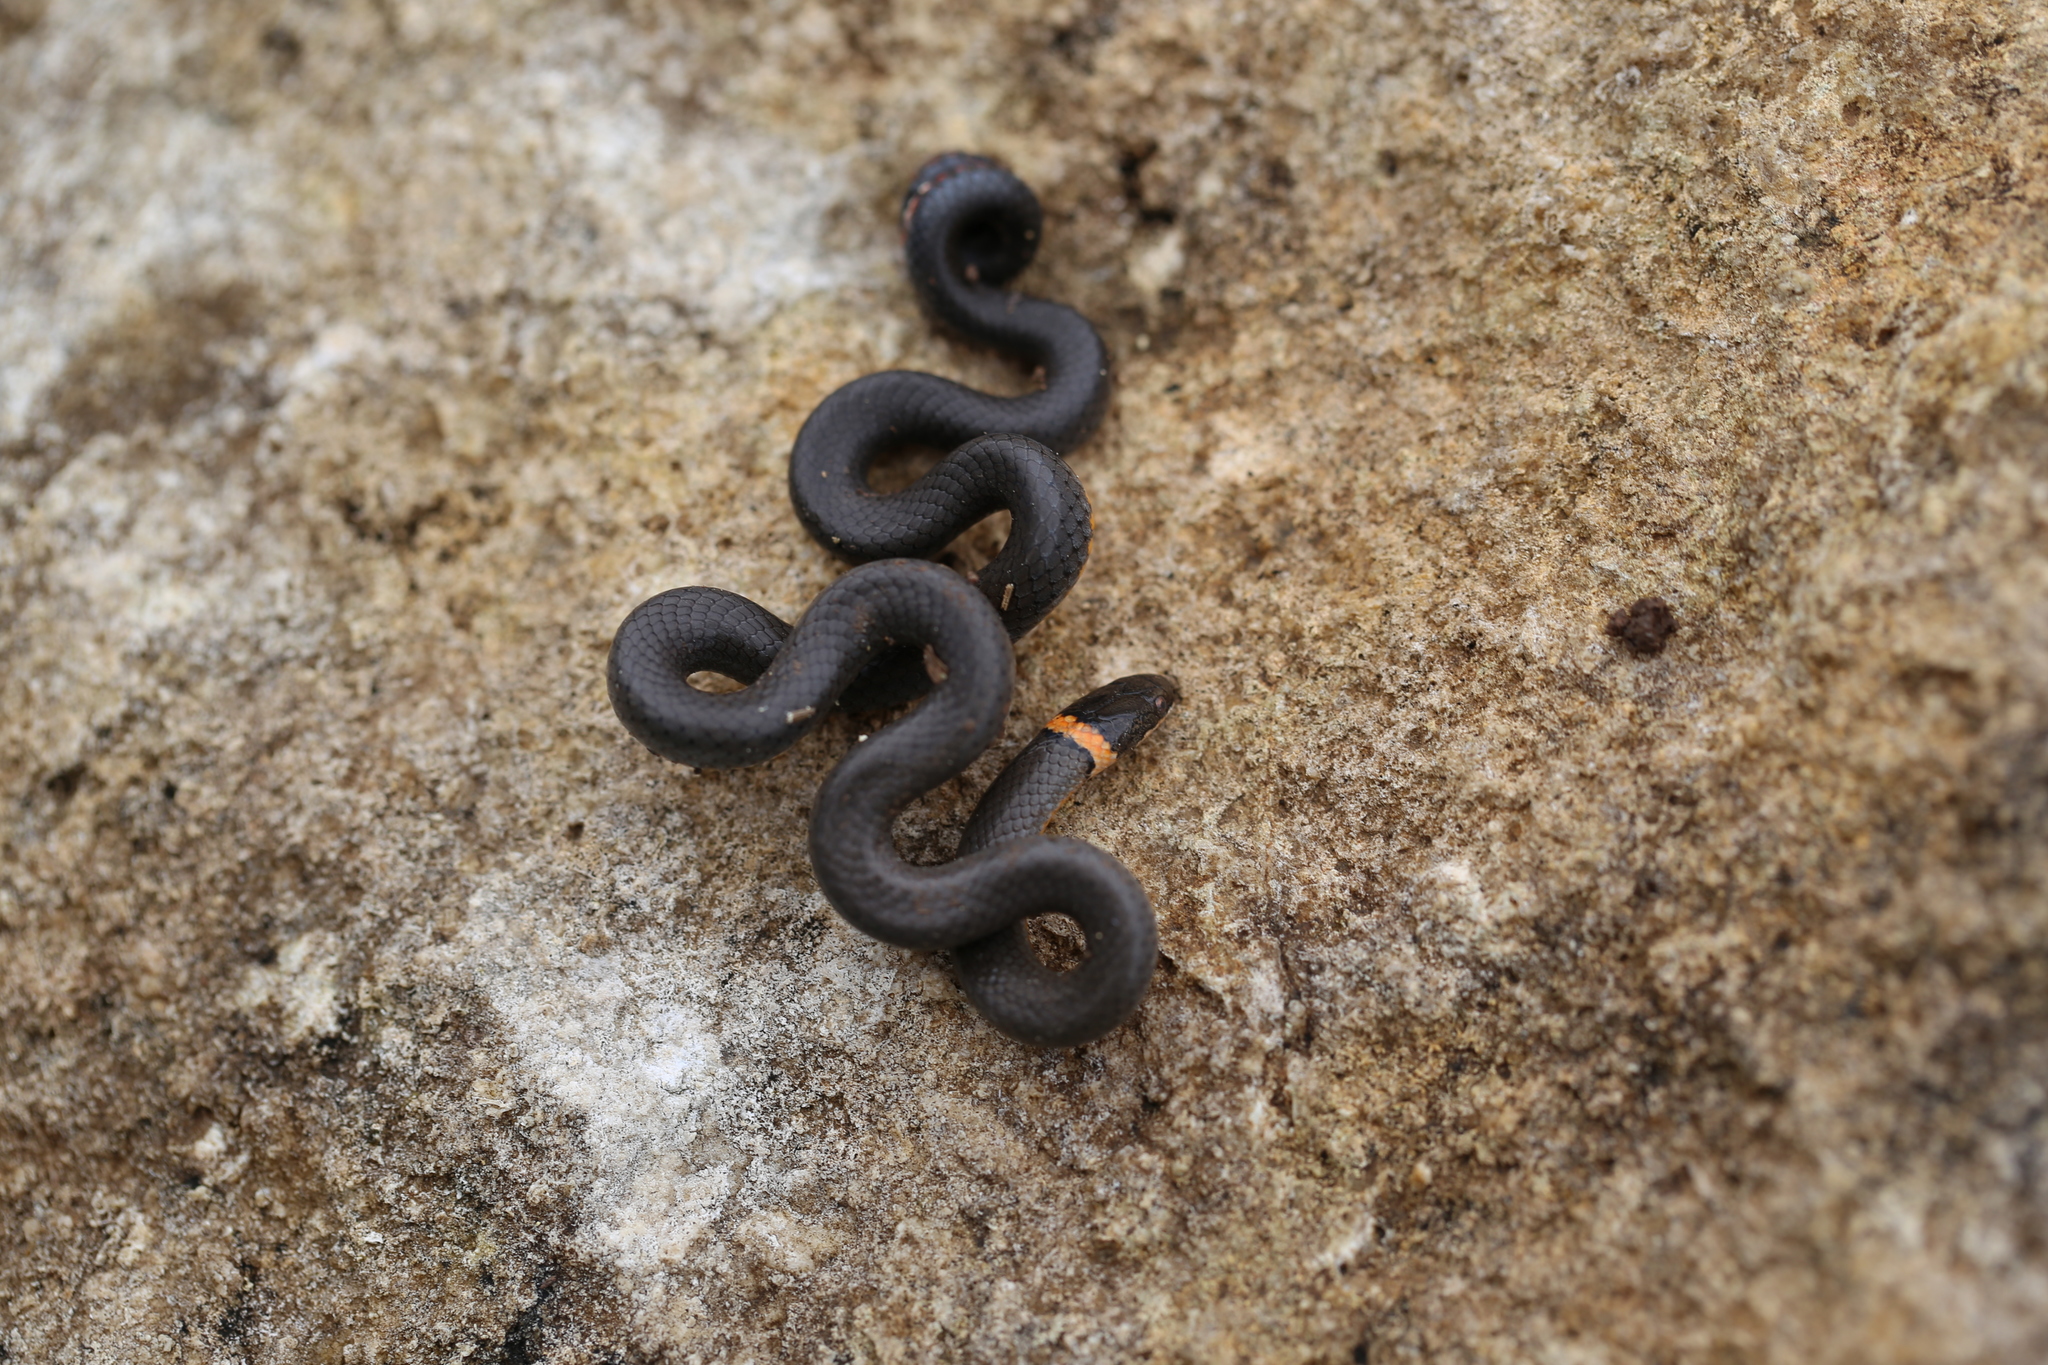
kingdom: Animalia
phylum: Chordata
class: Squamata
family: Colubridae
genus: Diadophis
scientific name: Diadophis punctatus
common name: Ringneck snake
